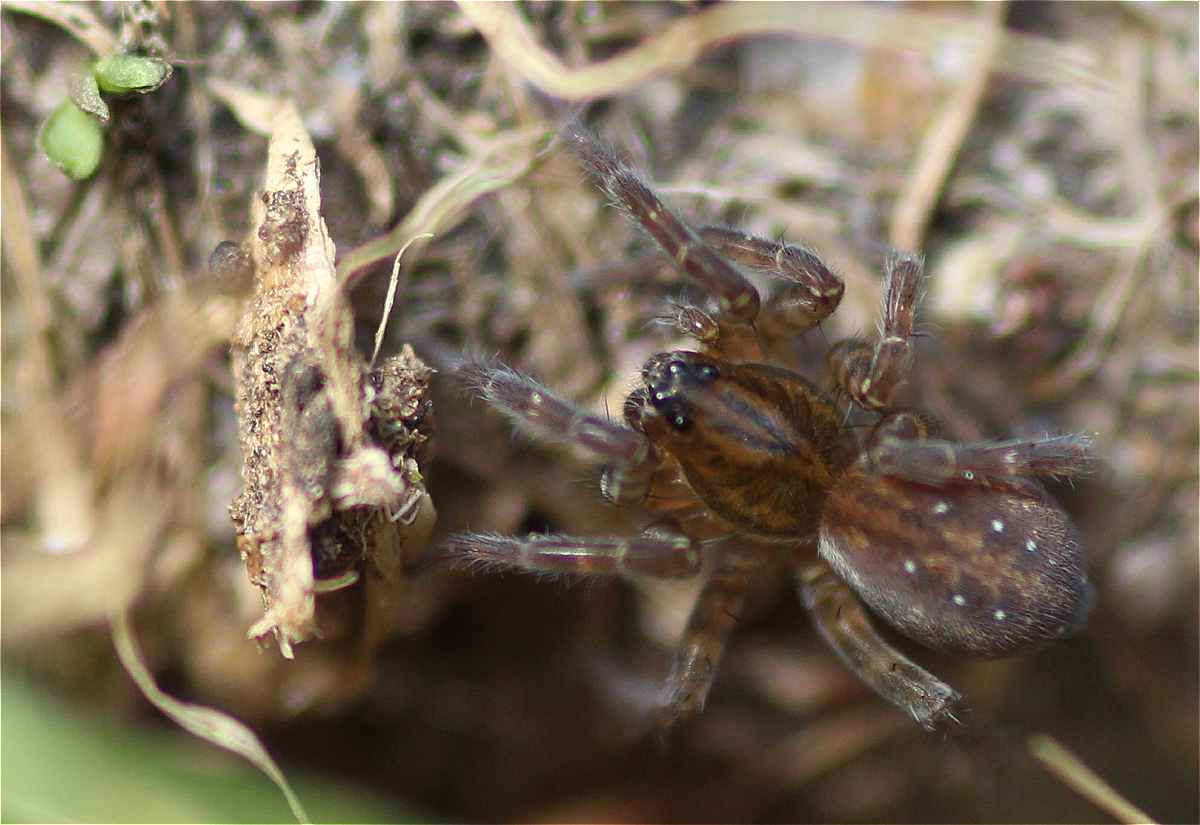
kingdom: Animalia
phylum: Arthropoda
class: Arachnida
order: Araneae
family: Lycosidae
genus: Piratula
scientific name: Piratula hygrophila
